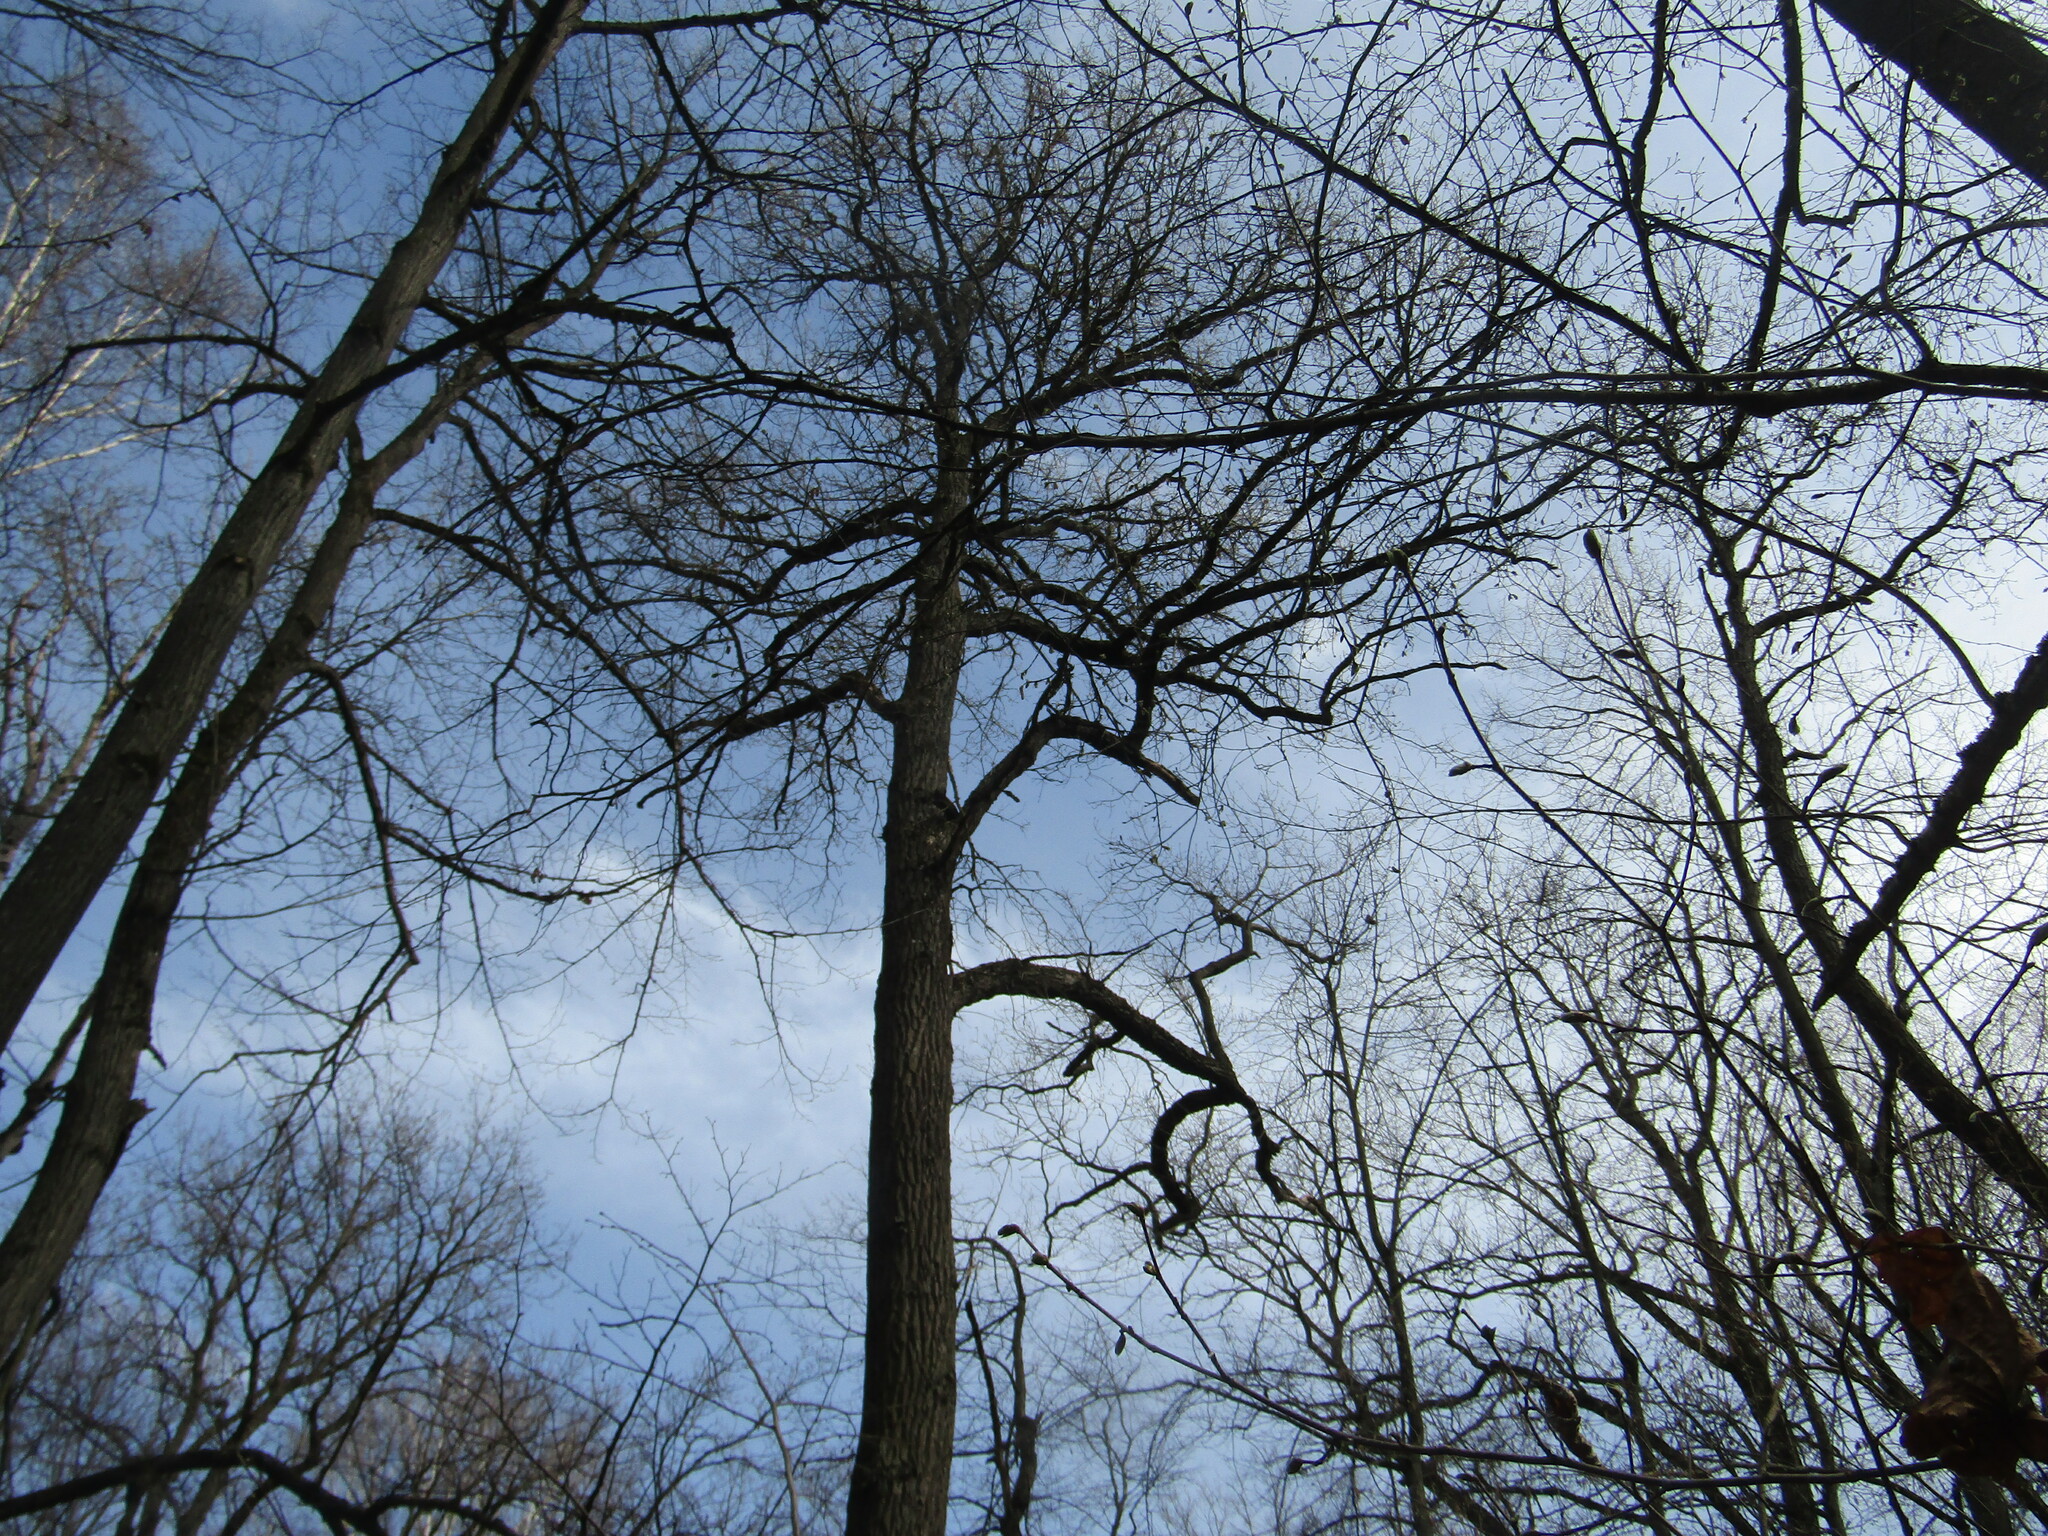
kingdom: Plantae
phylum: Tracheophyta
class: Magnoliopsida
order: Fagales
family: Fagaceae
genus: Quercus
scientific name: Quercus robur
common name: Pedunculate oak
